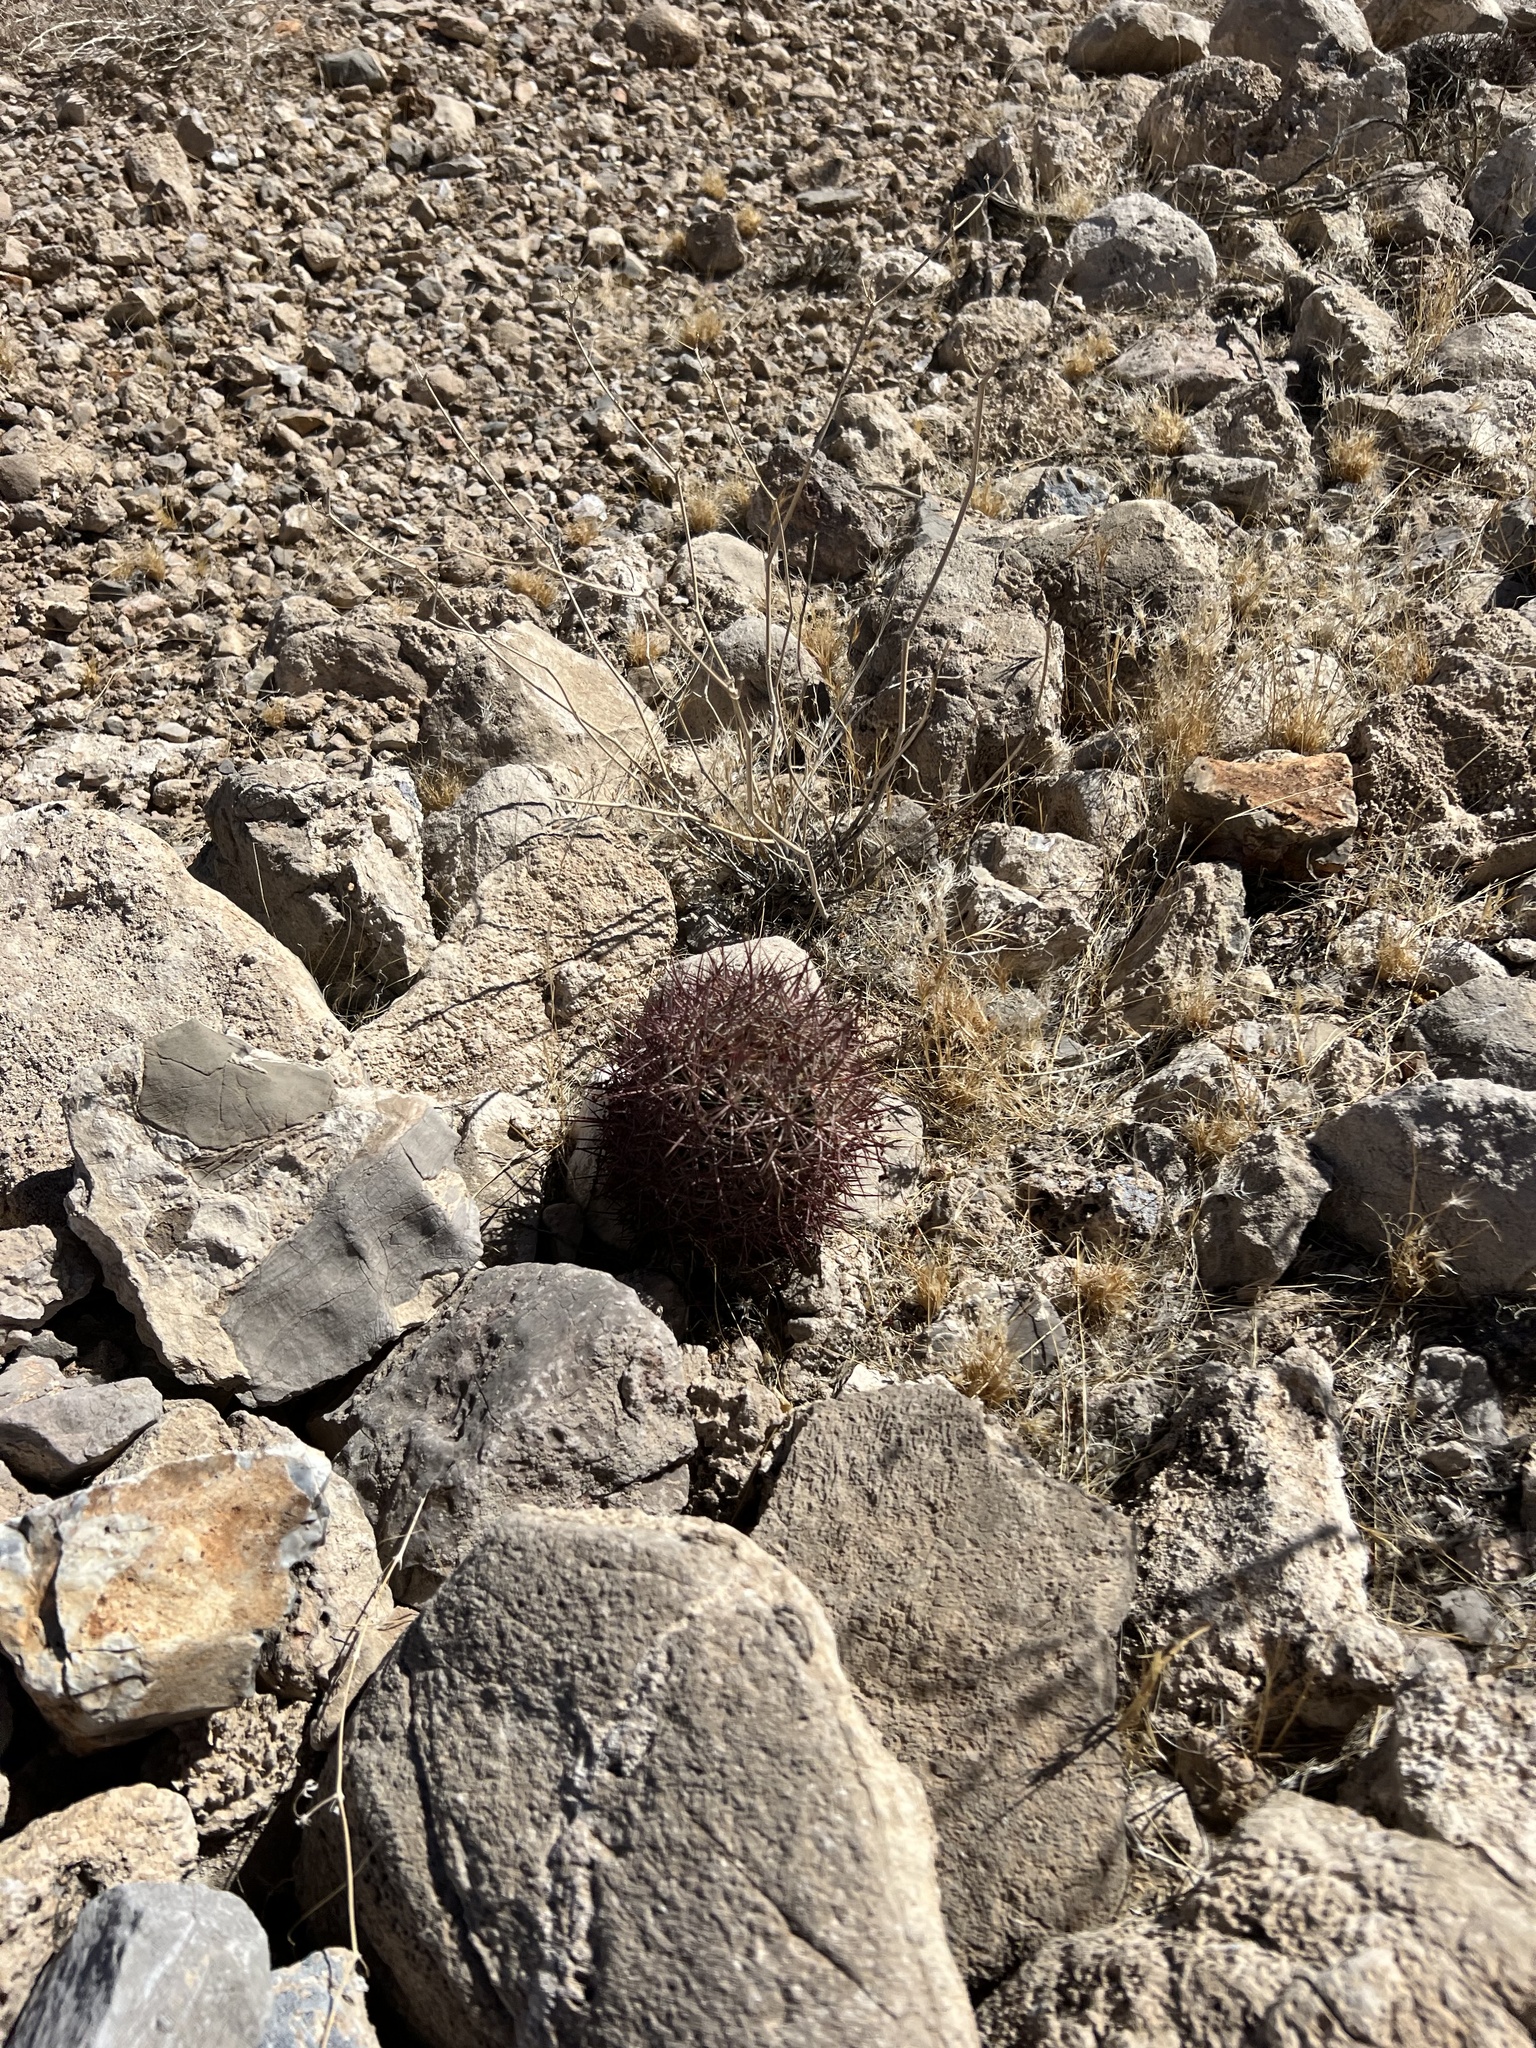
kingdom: Plantae
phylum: Tracheophyta
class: Magnoliopsida
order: Caryophyllales
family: Cactaceae
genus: Sclerocactus
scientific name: Sclerocactus johnsonii
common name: Eight-spine fishhook cactus
